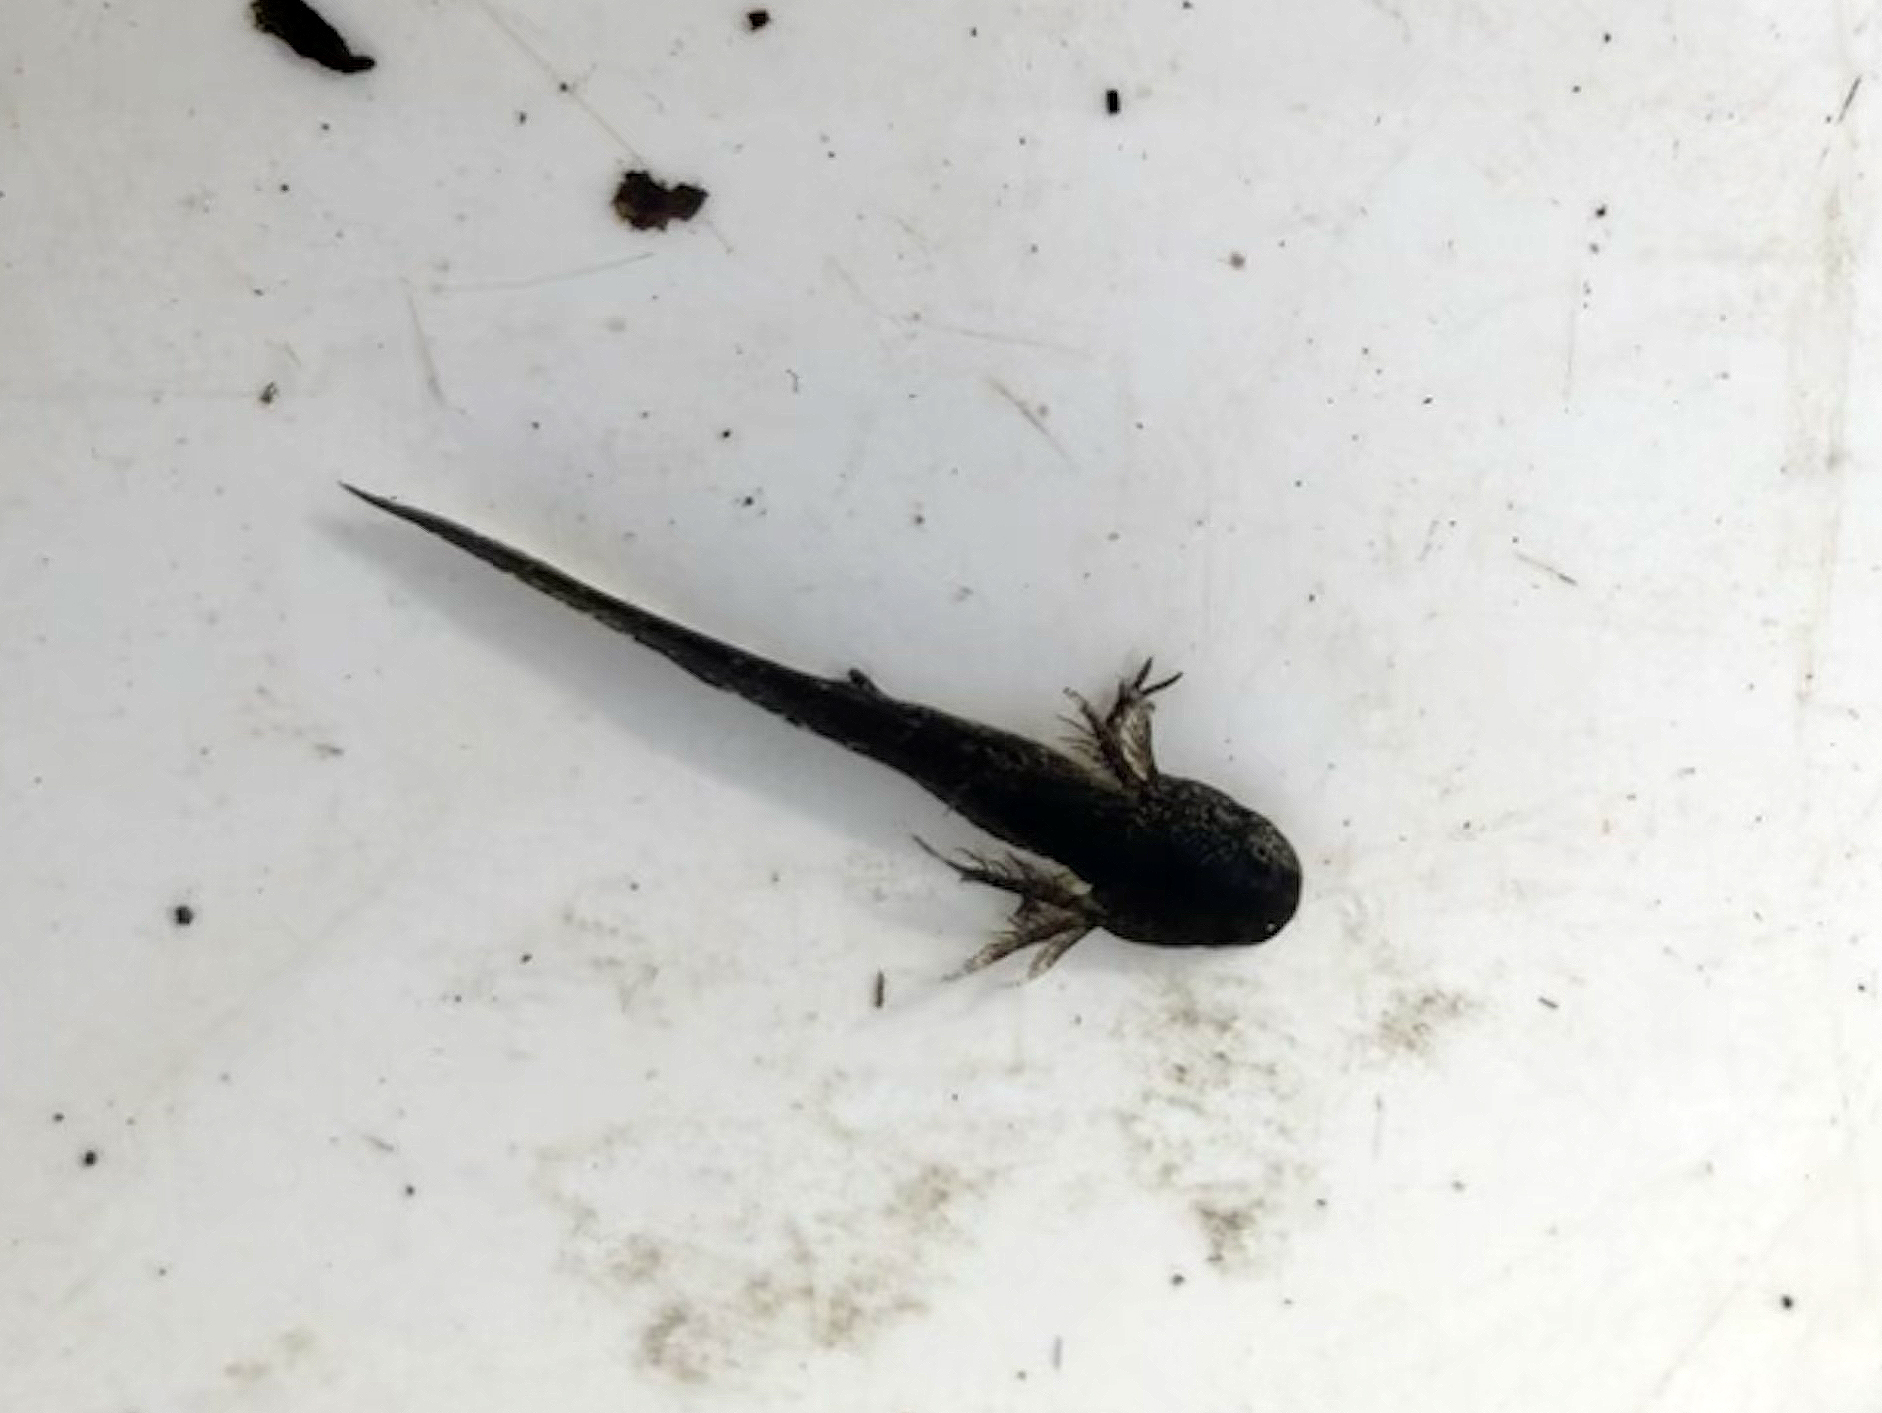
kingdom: Animalia
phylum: Chordata
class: Amphibia
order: Caudata
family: Ambystomatidae
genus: Ambystoma
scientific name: Ambystoma opacum
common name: Marbled salamander
